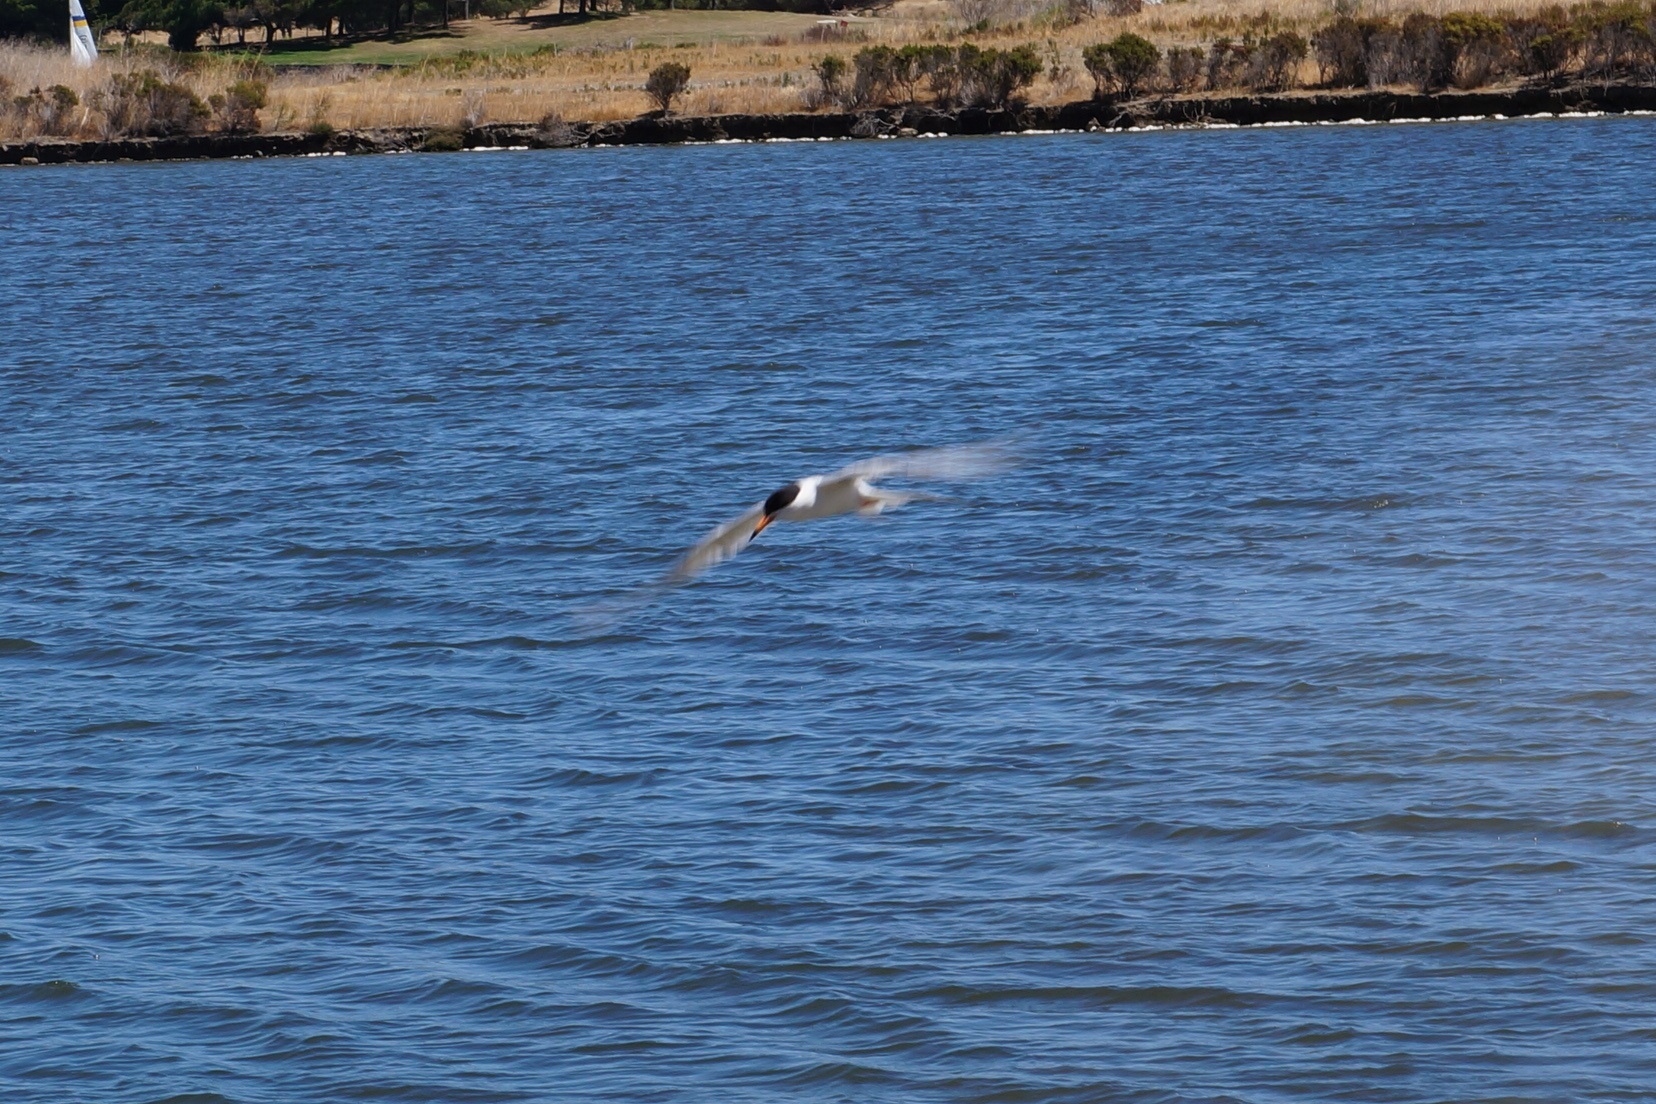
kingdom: Animalia
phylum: Chordata
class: Aves
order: Charadriiformes
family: Laridae
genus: Sterna
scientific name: Sterna forsteri
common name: Forster's tern
